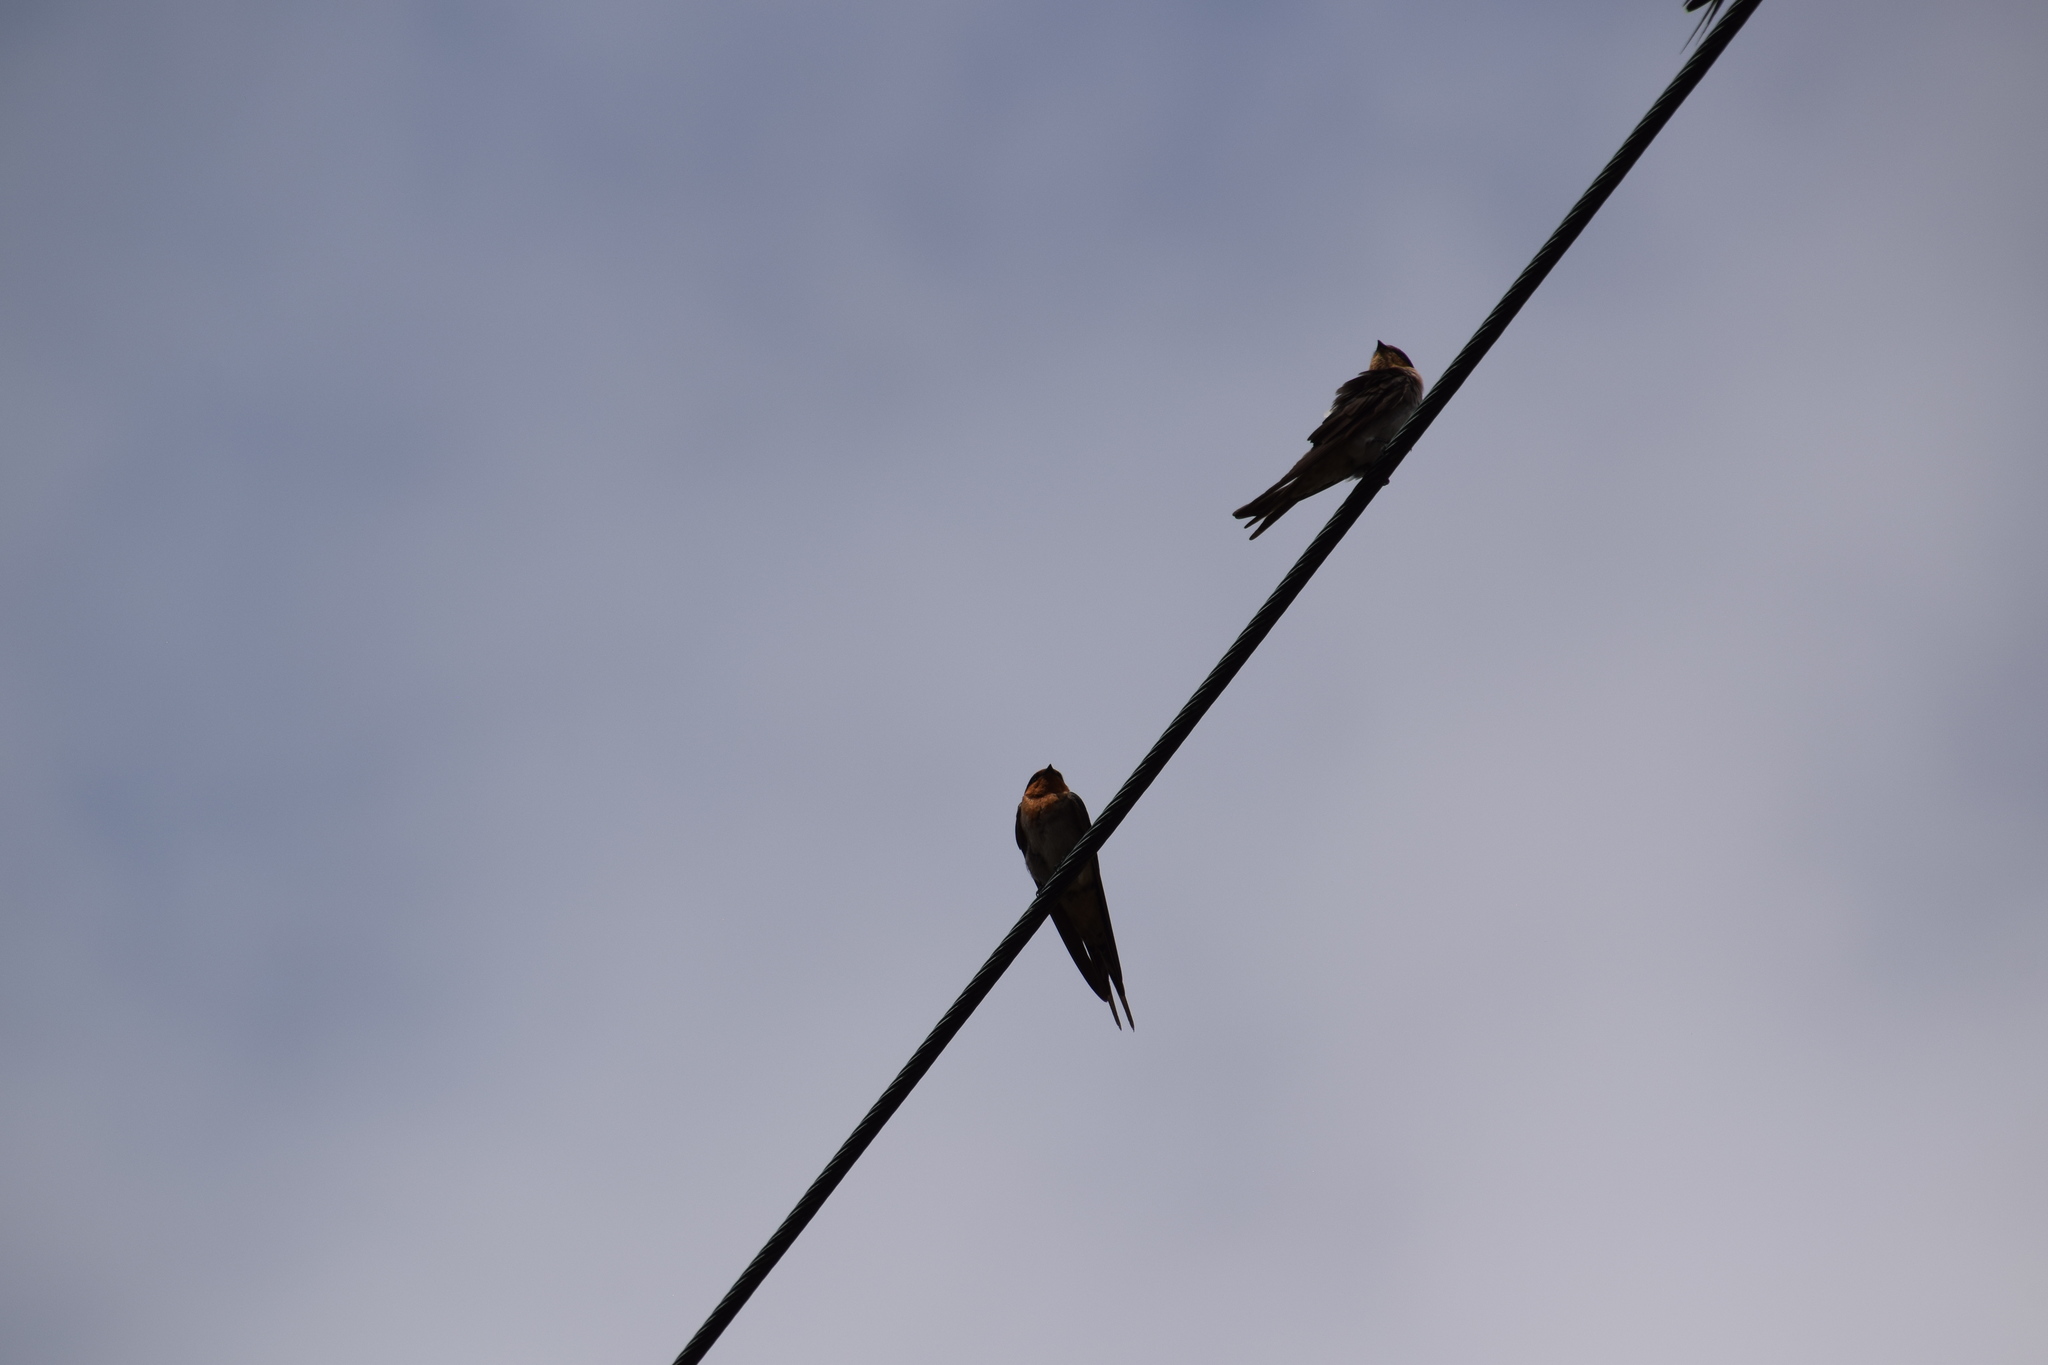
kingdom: Animalia
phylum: Chordata
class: Aves
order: Passeriformes
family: Hirundinidae
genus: Hirundo
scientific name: Hirundo neoxena
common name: Welcome swallow
